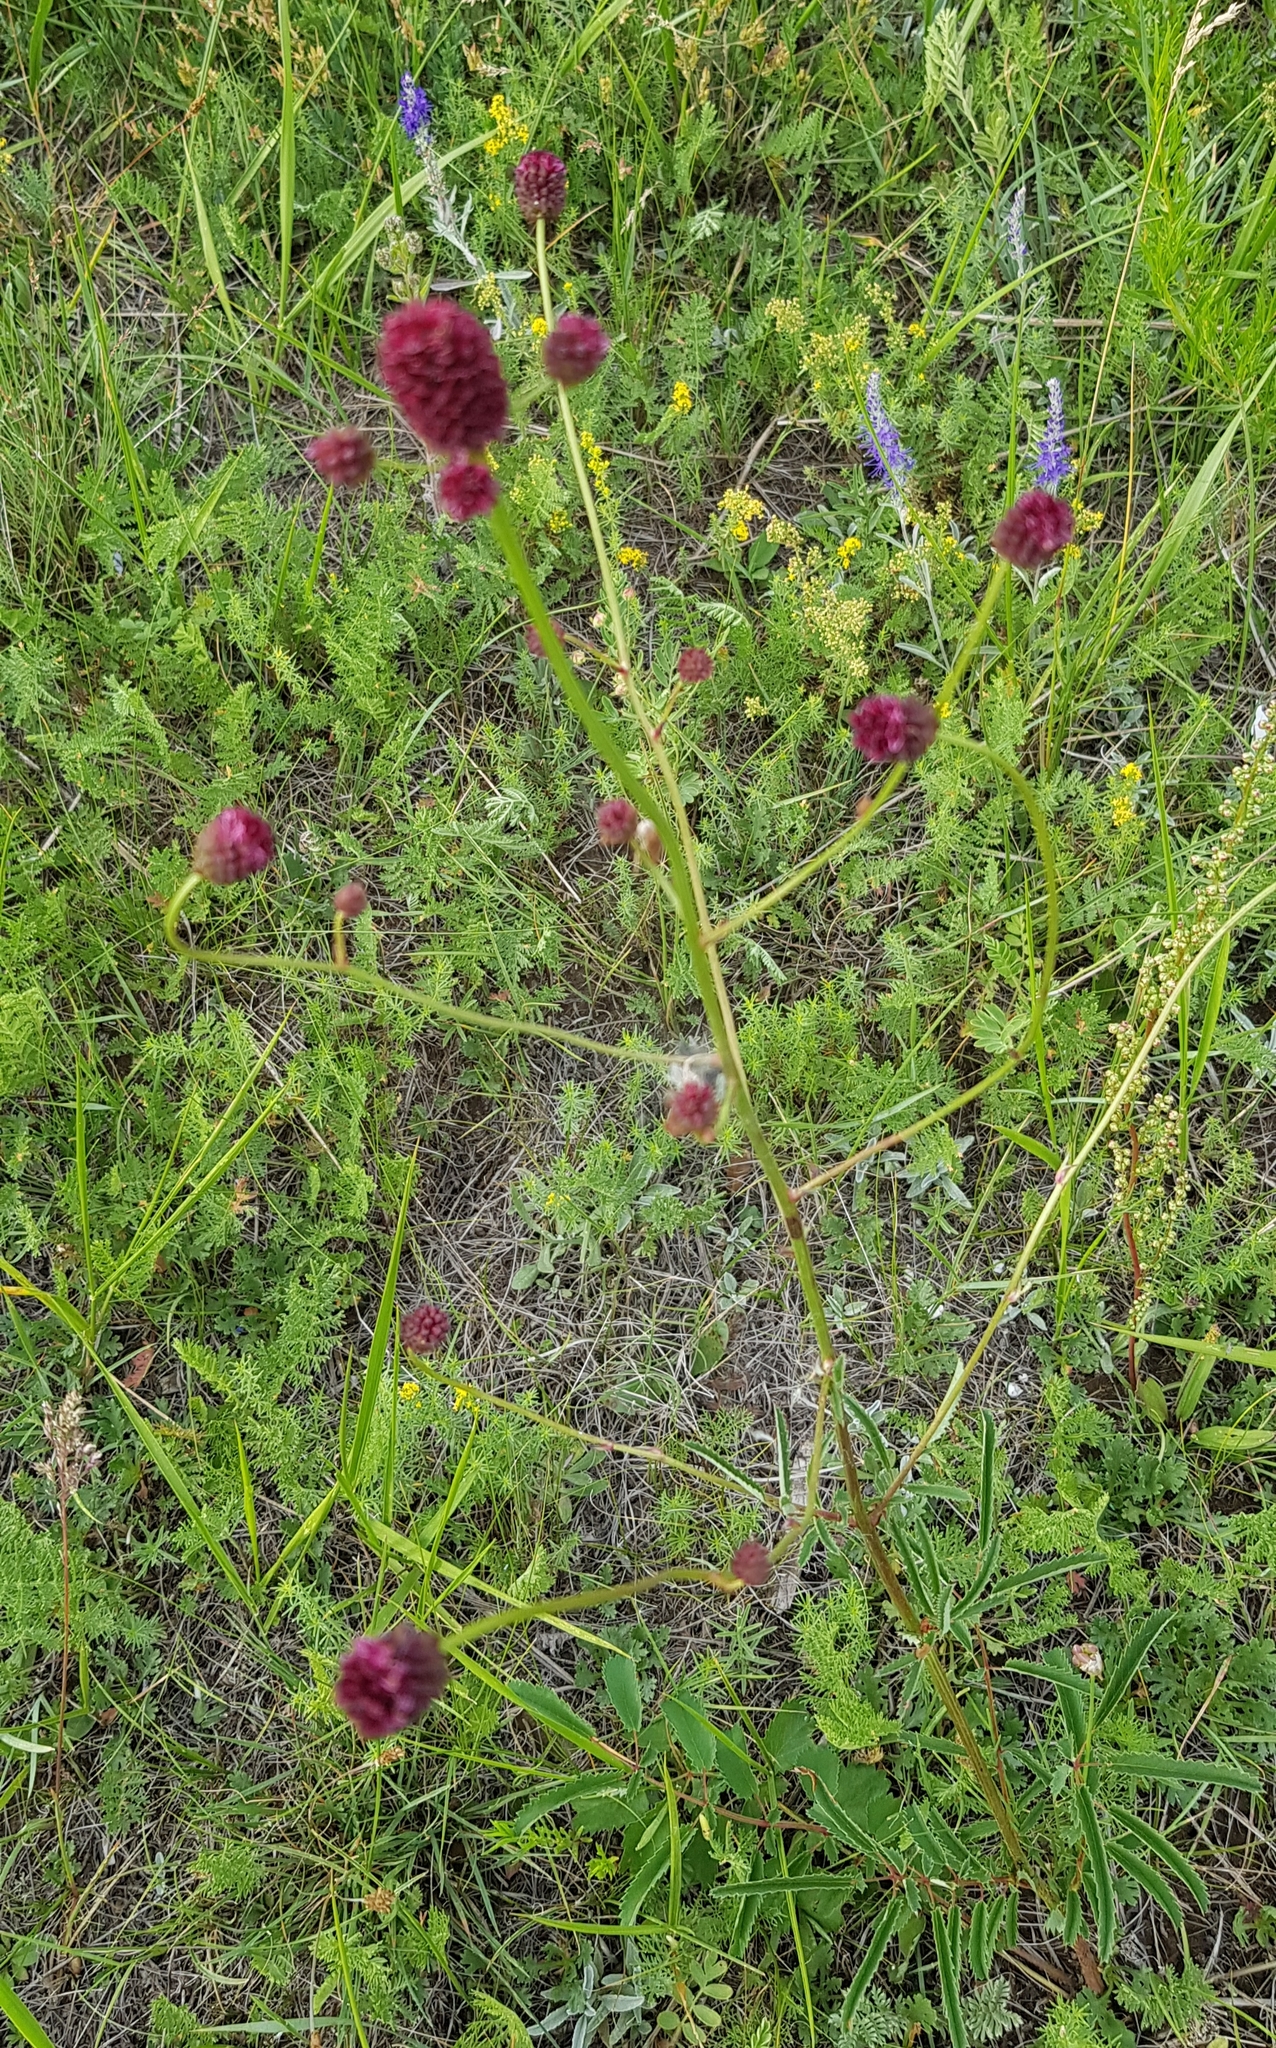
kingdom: Plantae
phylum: Tracheophyta
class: Magnoliopsida
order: Rosales
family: Rosaceae
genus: Sanguisorba
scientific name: Sanguisorba officinalis
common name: Great burnet
